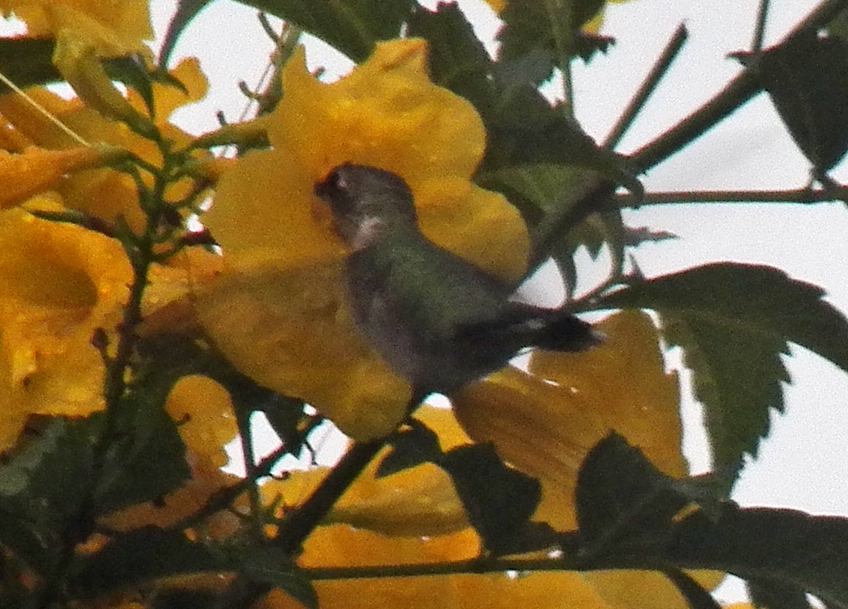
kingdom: Animalia
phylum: Chordata
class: Aves
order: Apodiformes
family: Trochilidae
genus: Archilochus
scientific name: Archilochus colubris
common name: Ruby-throated hummingbird
